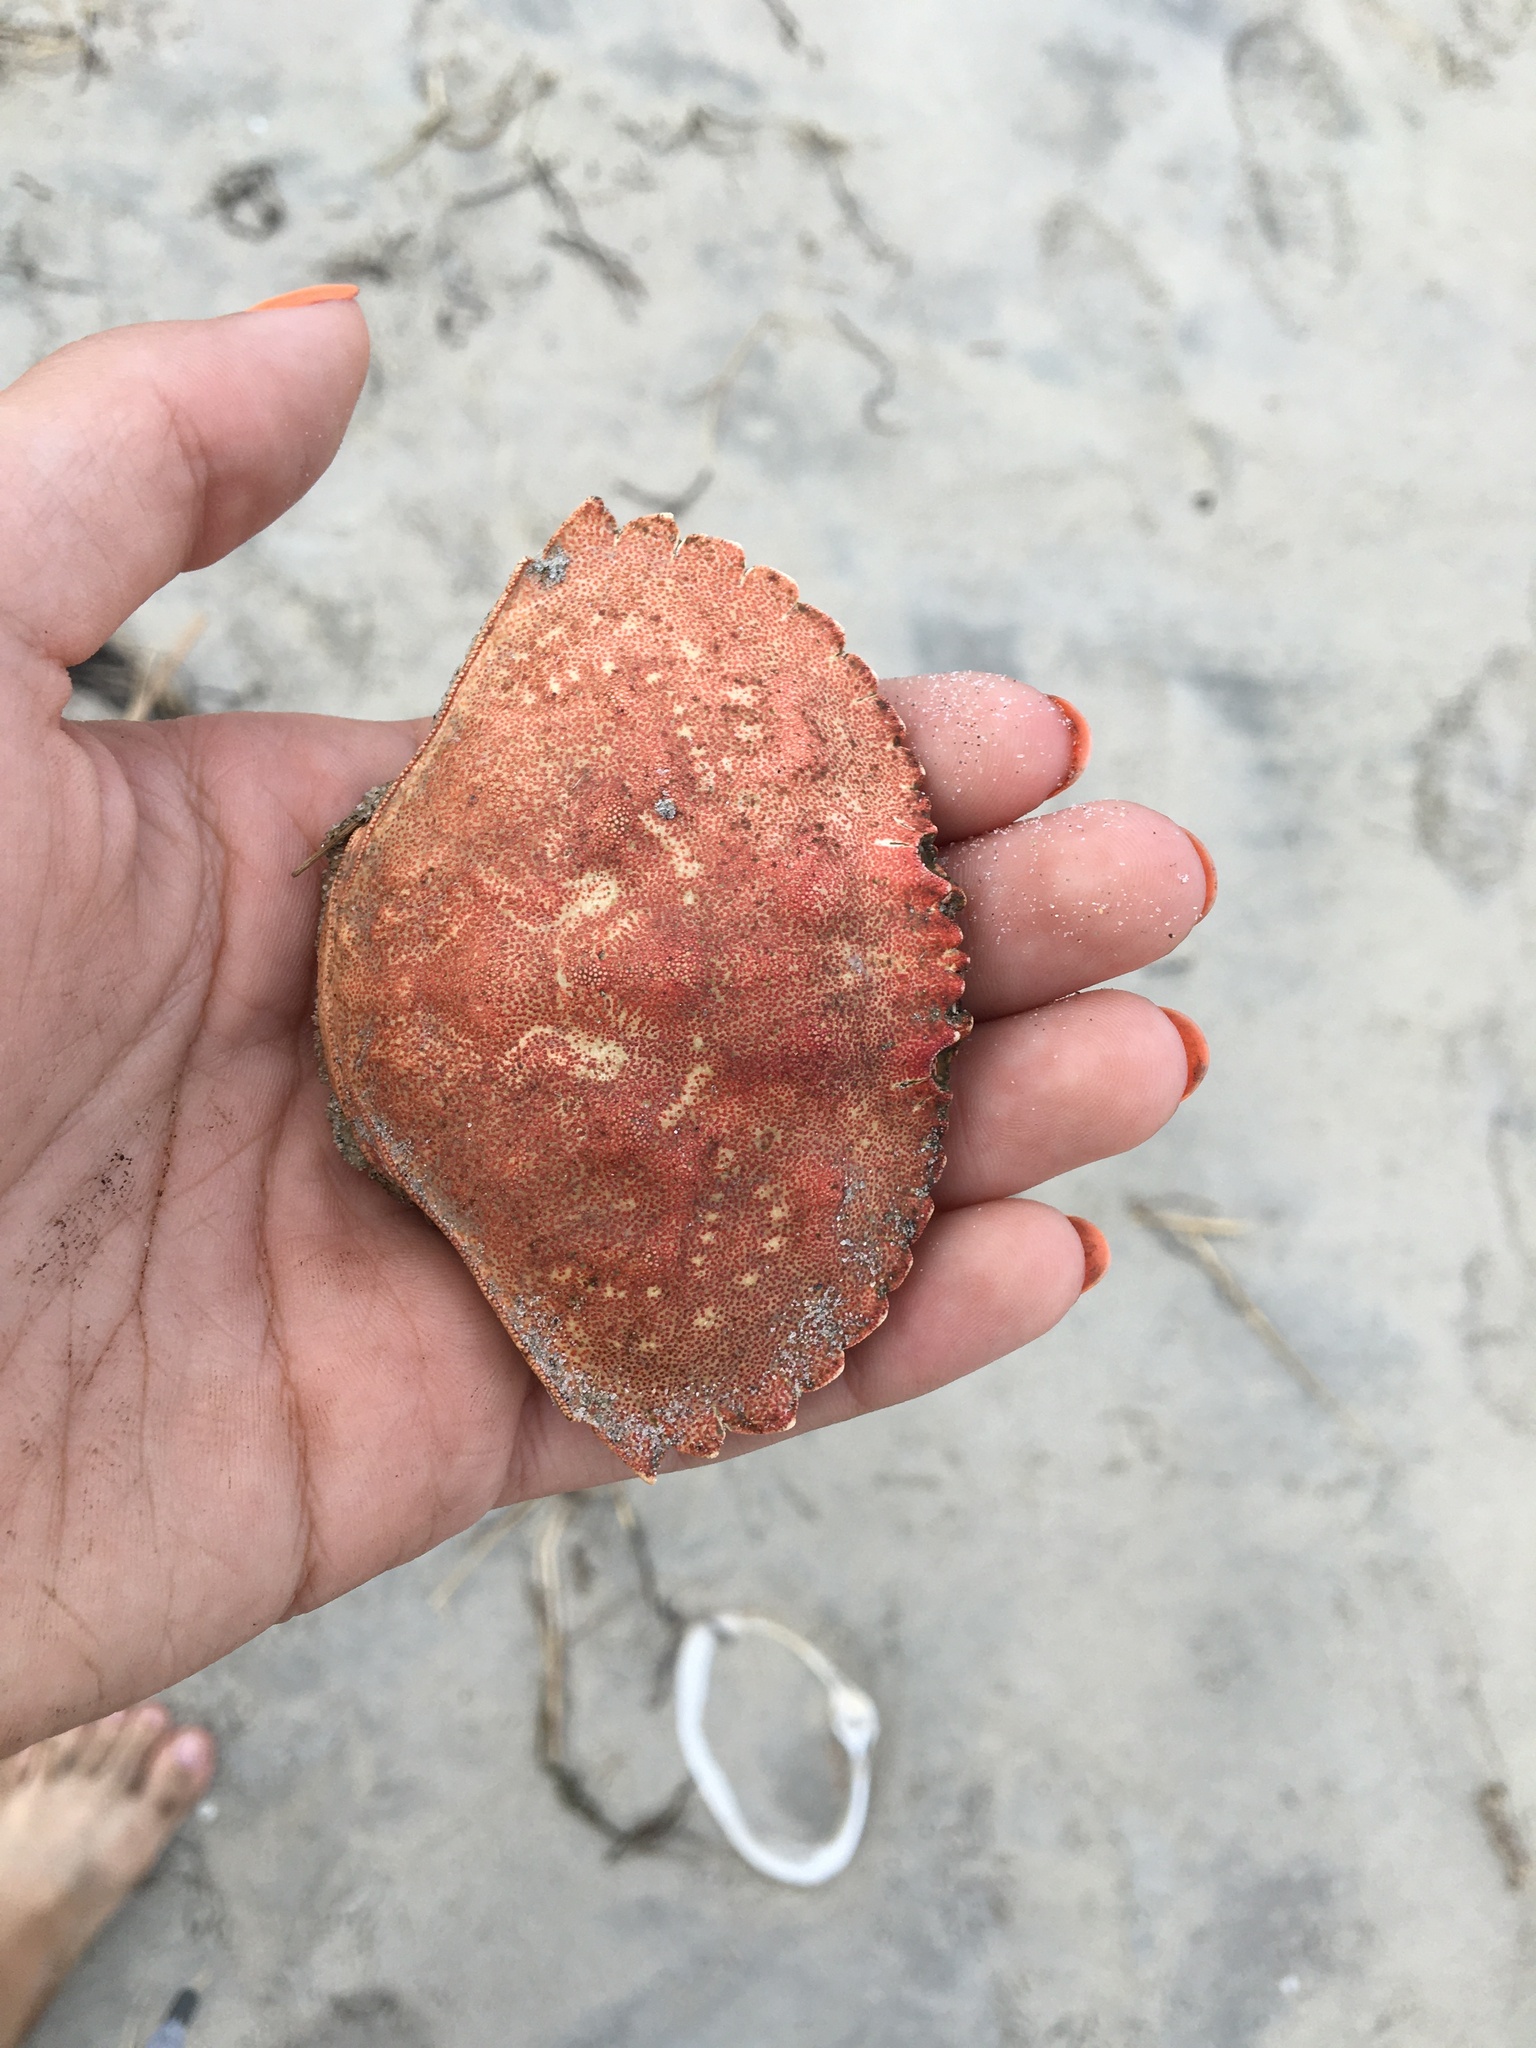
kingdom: Animalia
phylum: Arthropoda
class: Malacostraca
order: Decapoda
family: Cancridae
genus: Cancer
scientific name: Cancer irroratus
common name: Atlantic rock crab
